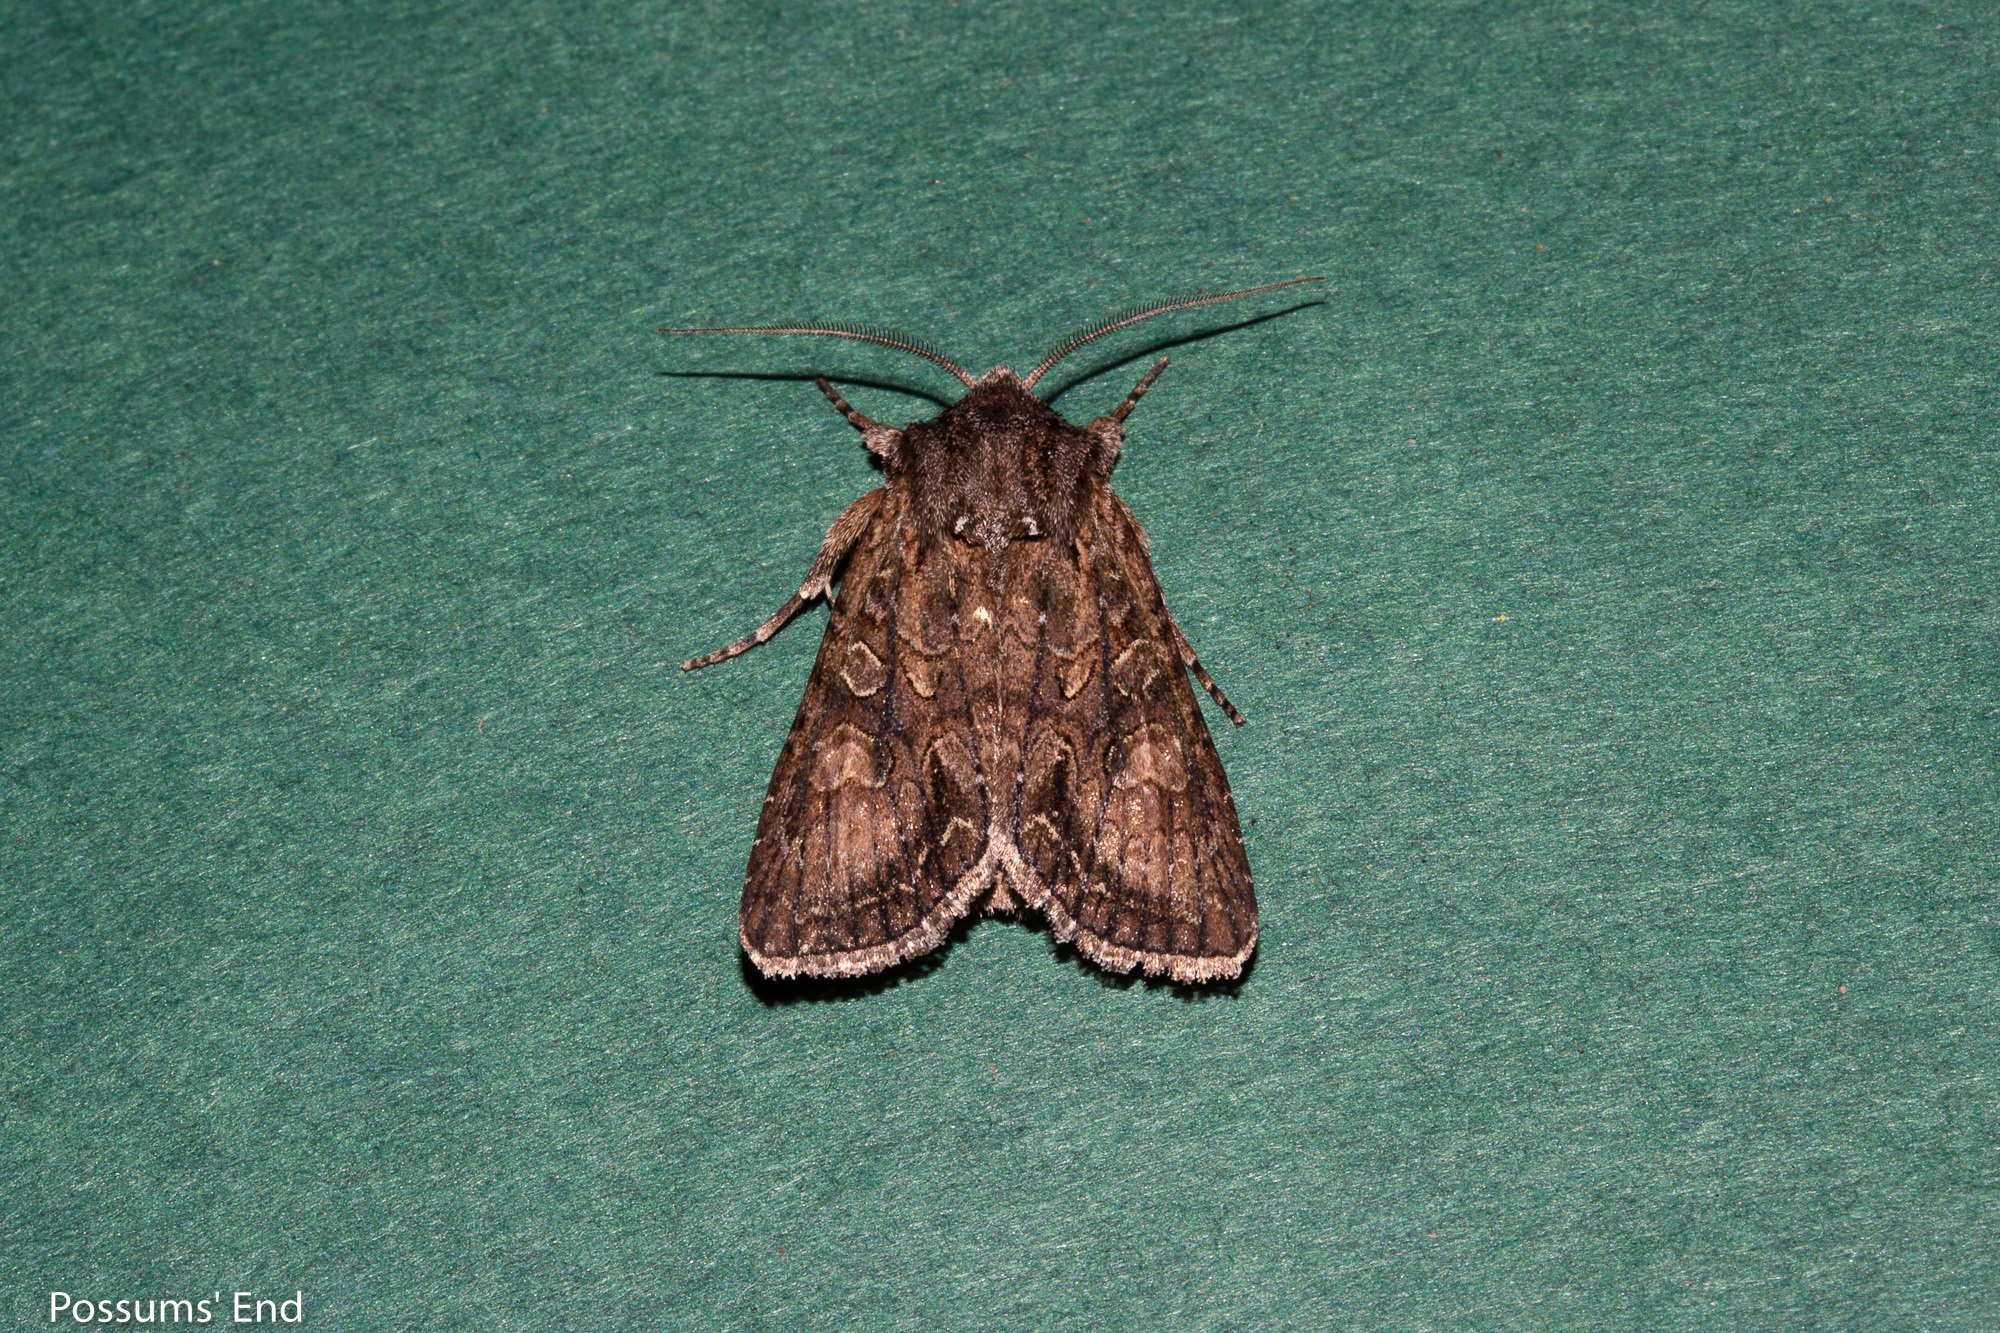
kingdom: Animalia
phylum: Arthropoda
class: Insecta
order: Lepidoptera
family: Noctuidae
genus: Ichneutica
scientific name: Ichneutica mutans
